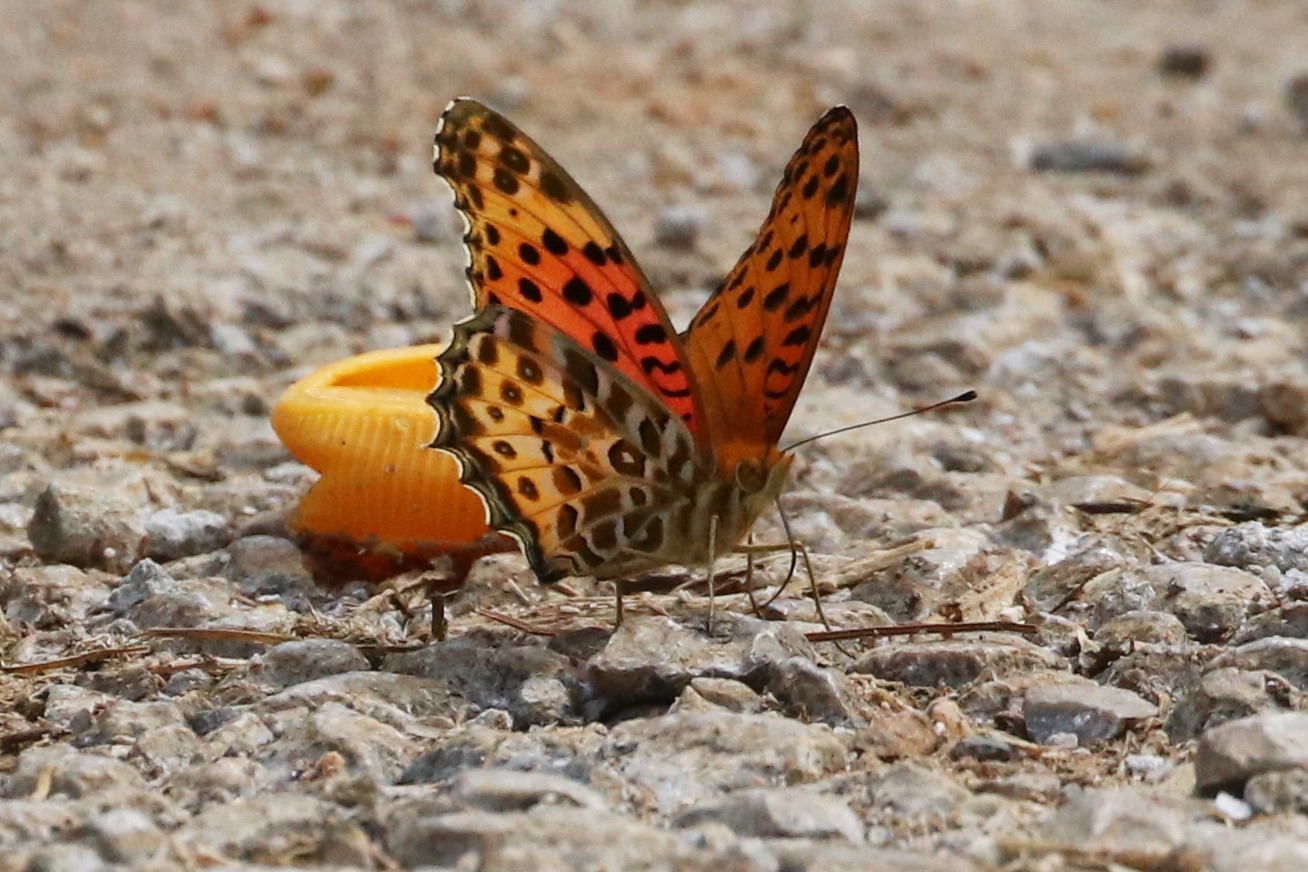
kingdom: Animalia
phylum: Arthropoda
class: Insecta
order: Lepidoptera
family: Nymphalidae
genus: Argynnis
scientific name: Argynnis hyperbius
